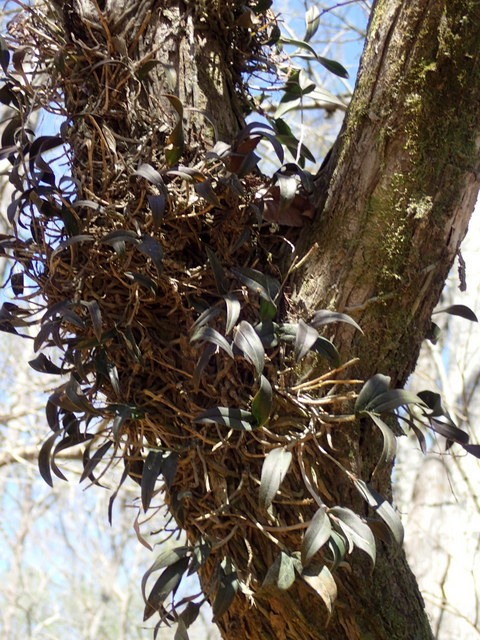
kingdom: Plantae
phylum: Tracheophyta
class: Liliopsida
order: Asparagales
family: Orchidaceae
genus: Epidendrum
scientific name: Epidendrum conopseum
